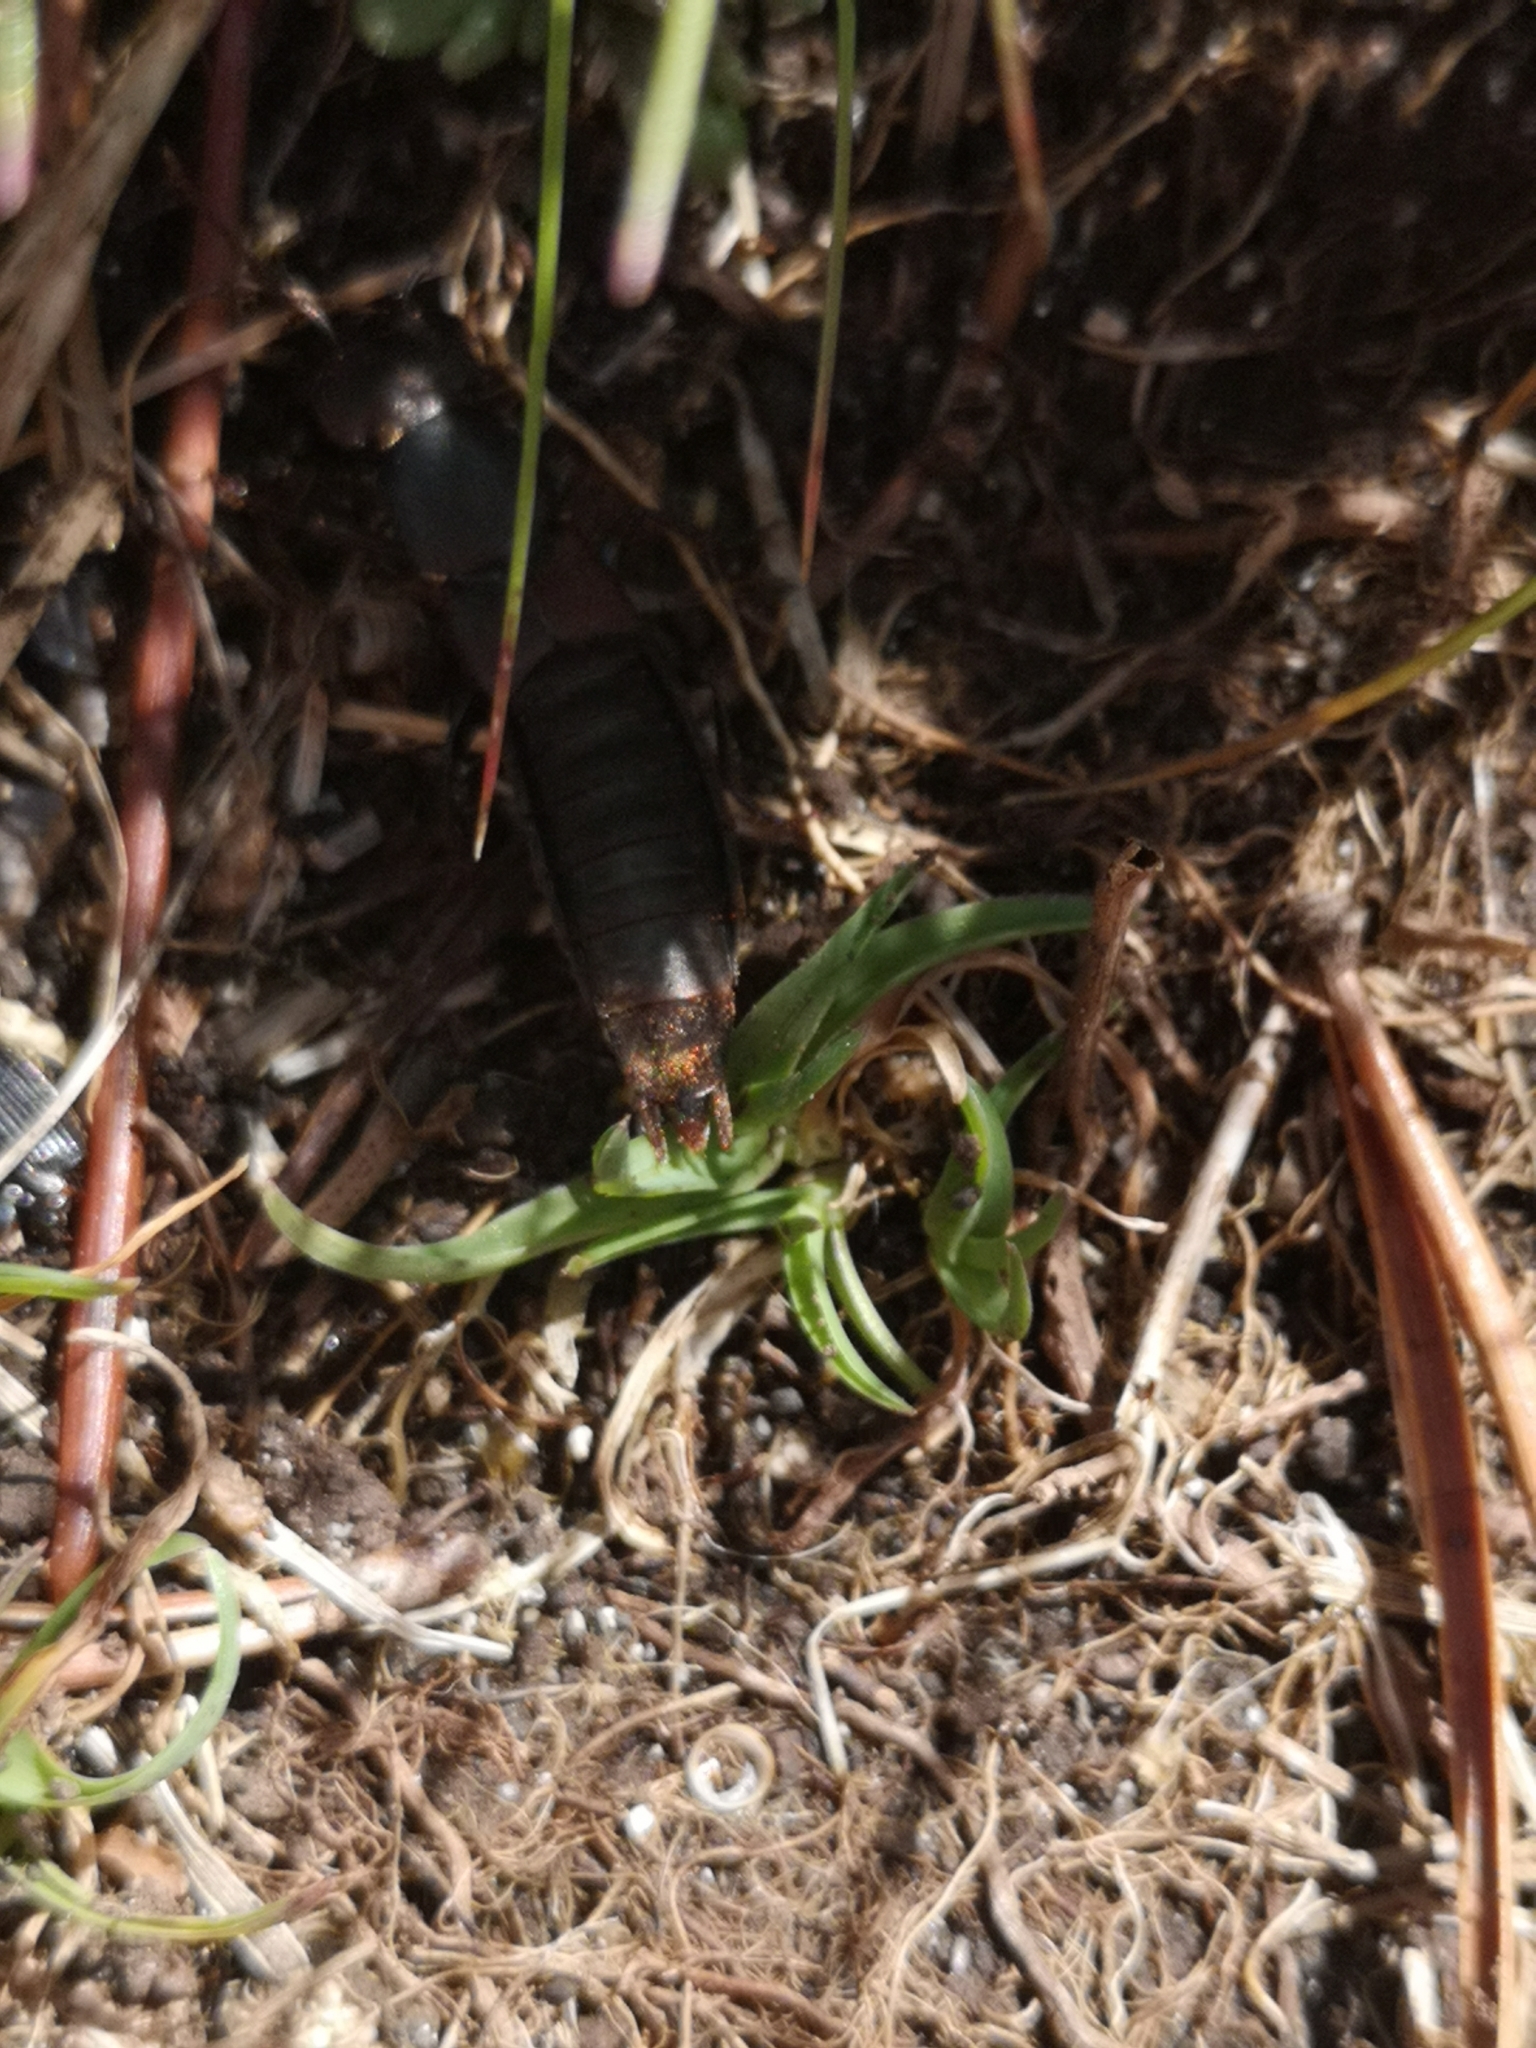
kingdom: Animalia
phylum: Arthropoda
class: Insecta
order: Coleoptera
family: Staphylinidae
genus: Ocypus
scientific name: Ocypus italicus
